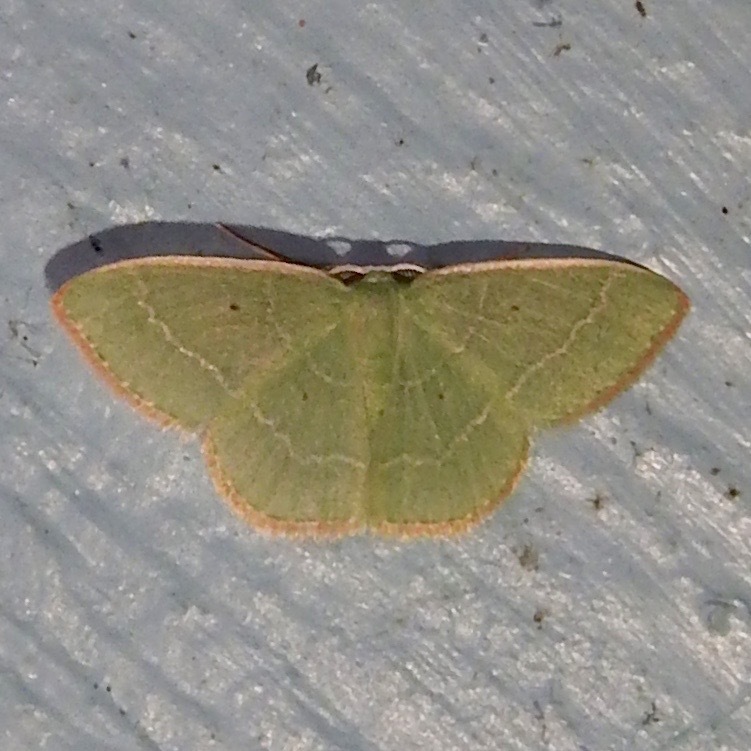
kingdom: Animalia
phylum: Arthropoda
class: Insecta
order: Lepidoptera
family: Geometridae
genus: Nemoria
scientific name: Nemoria elfa
